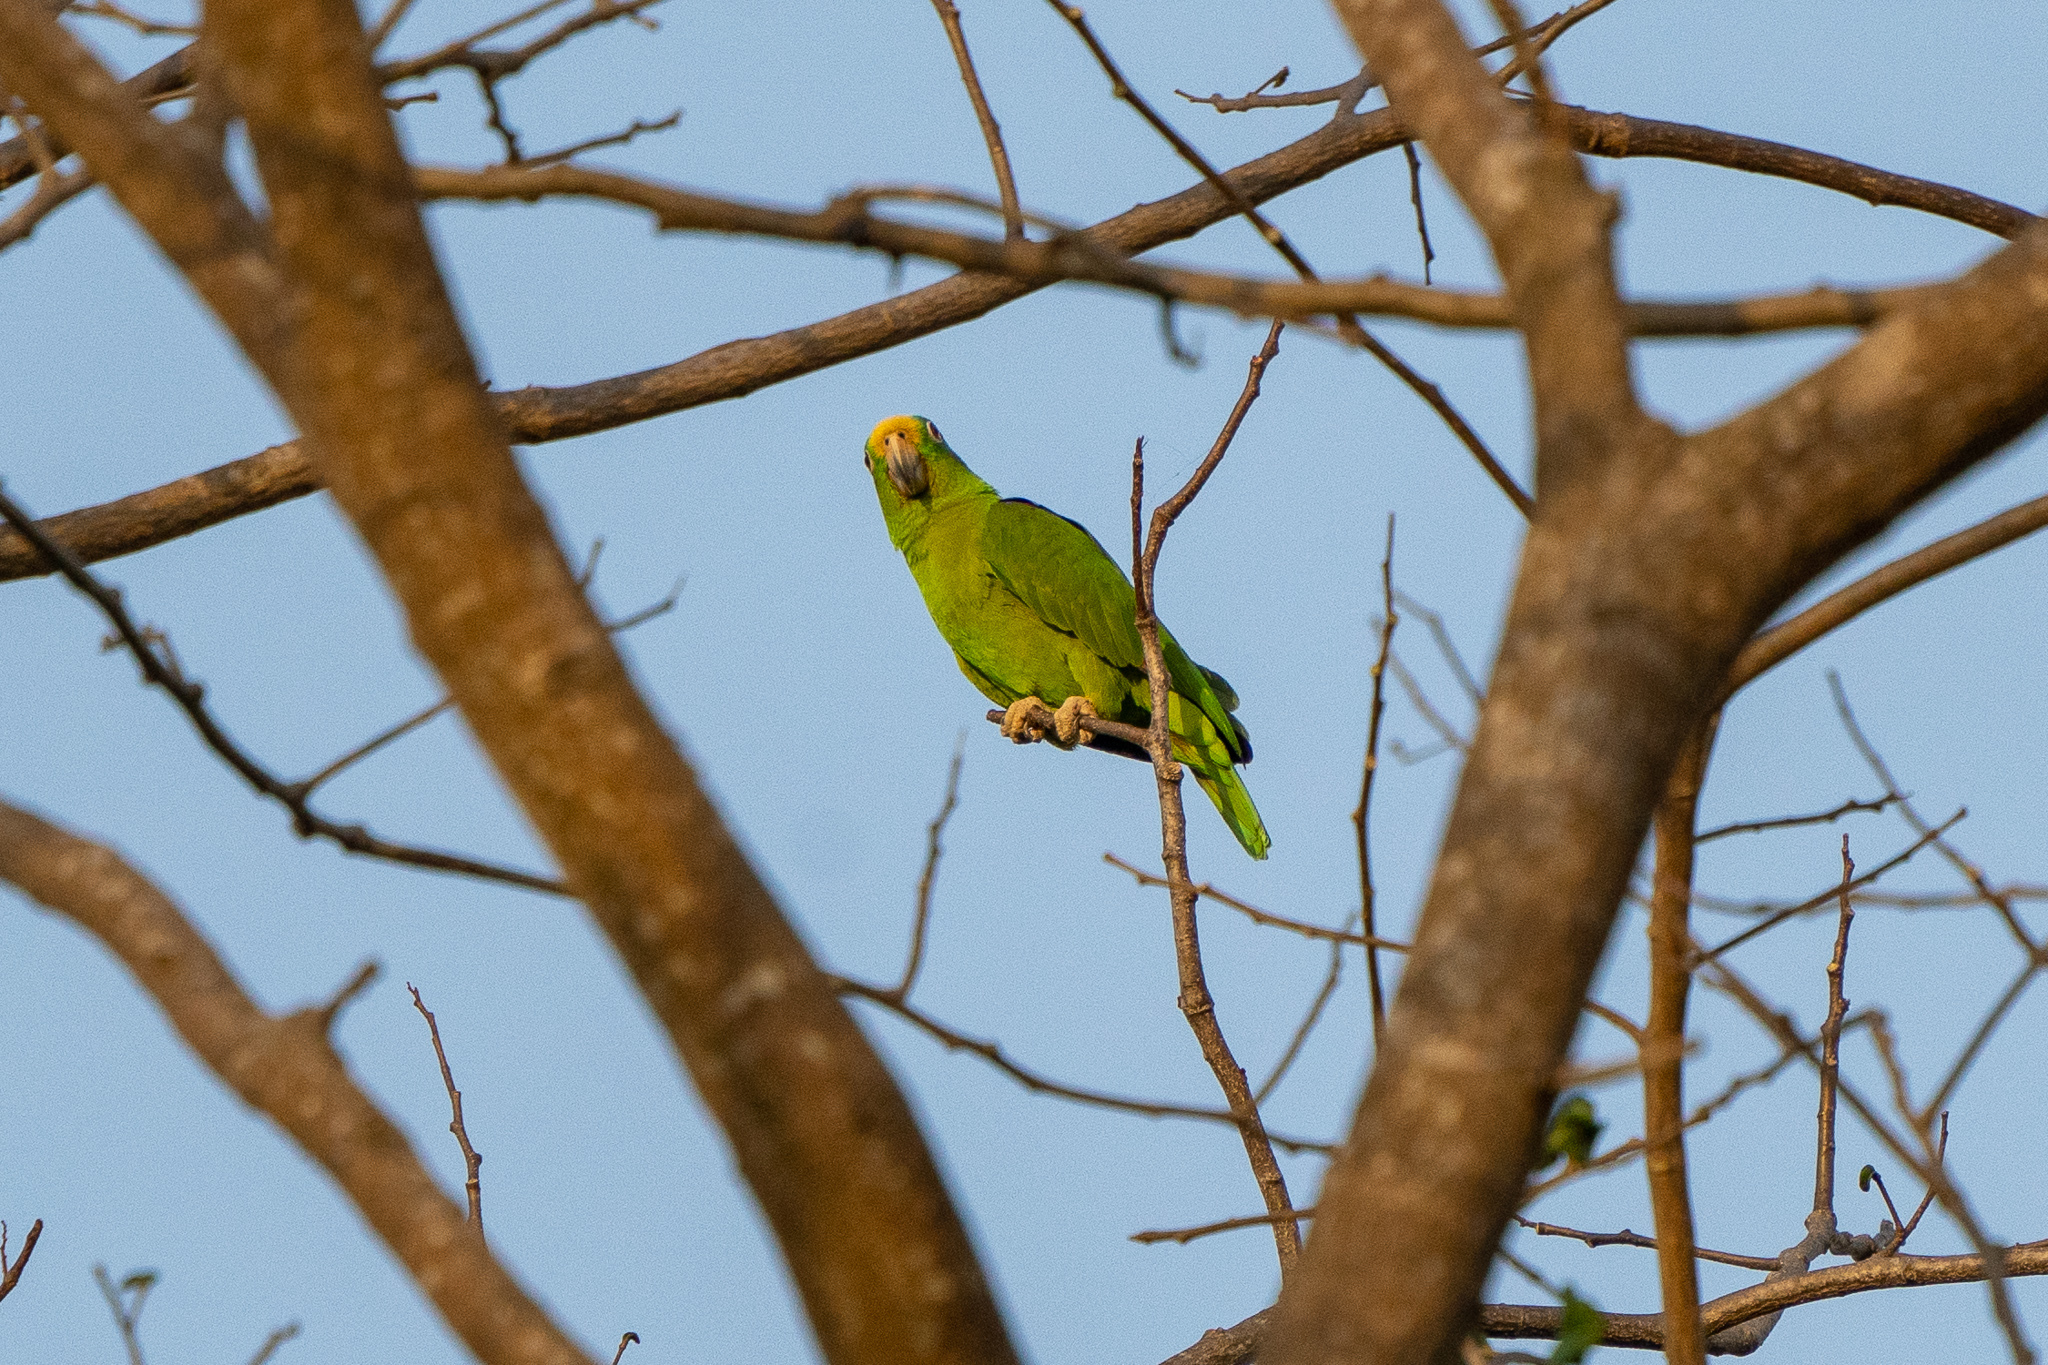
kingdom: Animalia
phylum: Chordata
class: Aves
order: Psittaciformes
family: Psittacidae
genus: Amazona
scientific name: Amazona ochrocephala
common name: Yellow-crowned amazon
